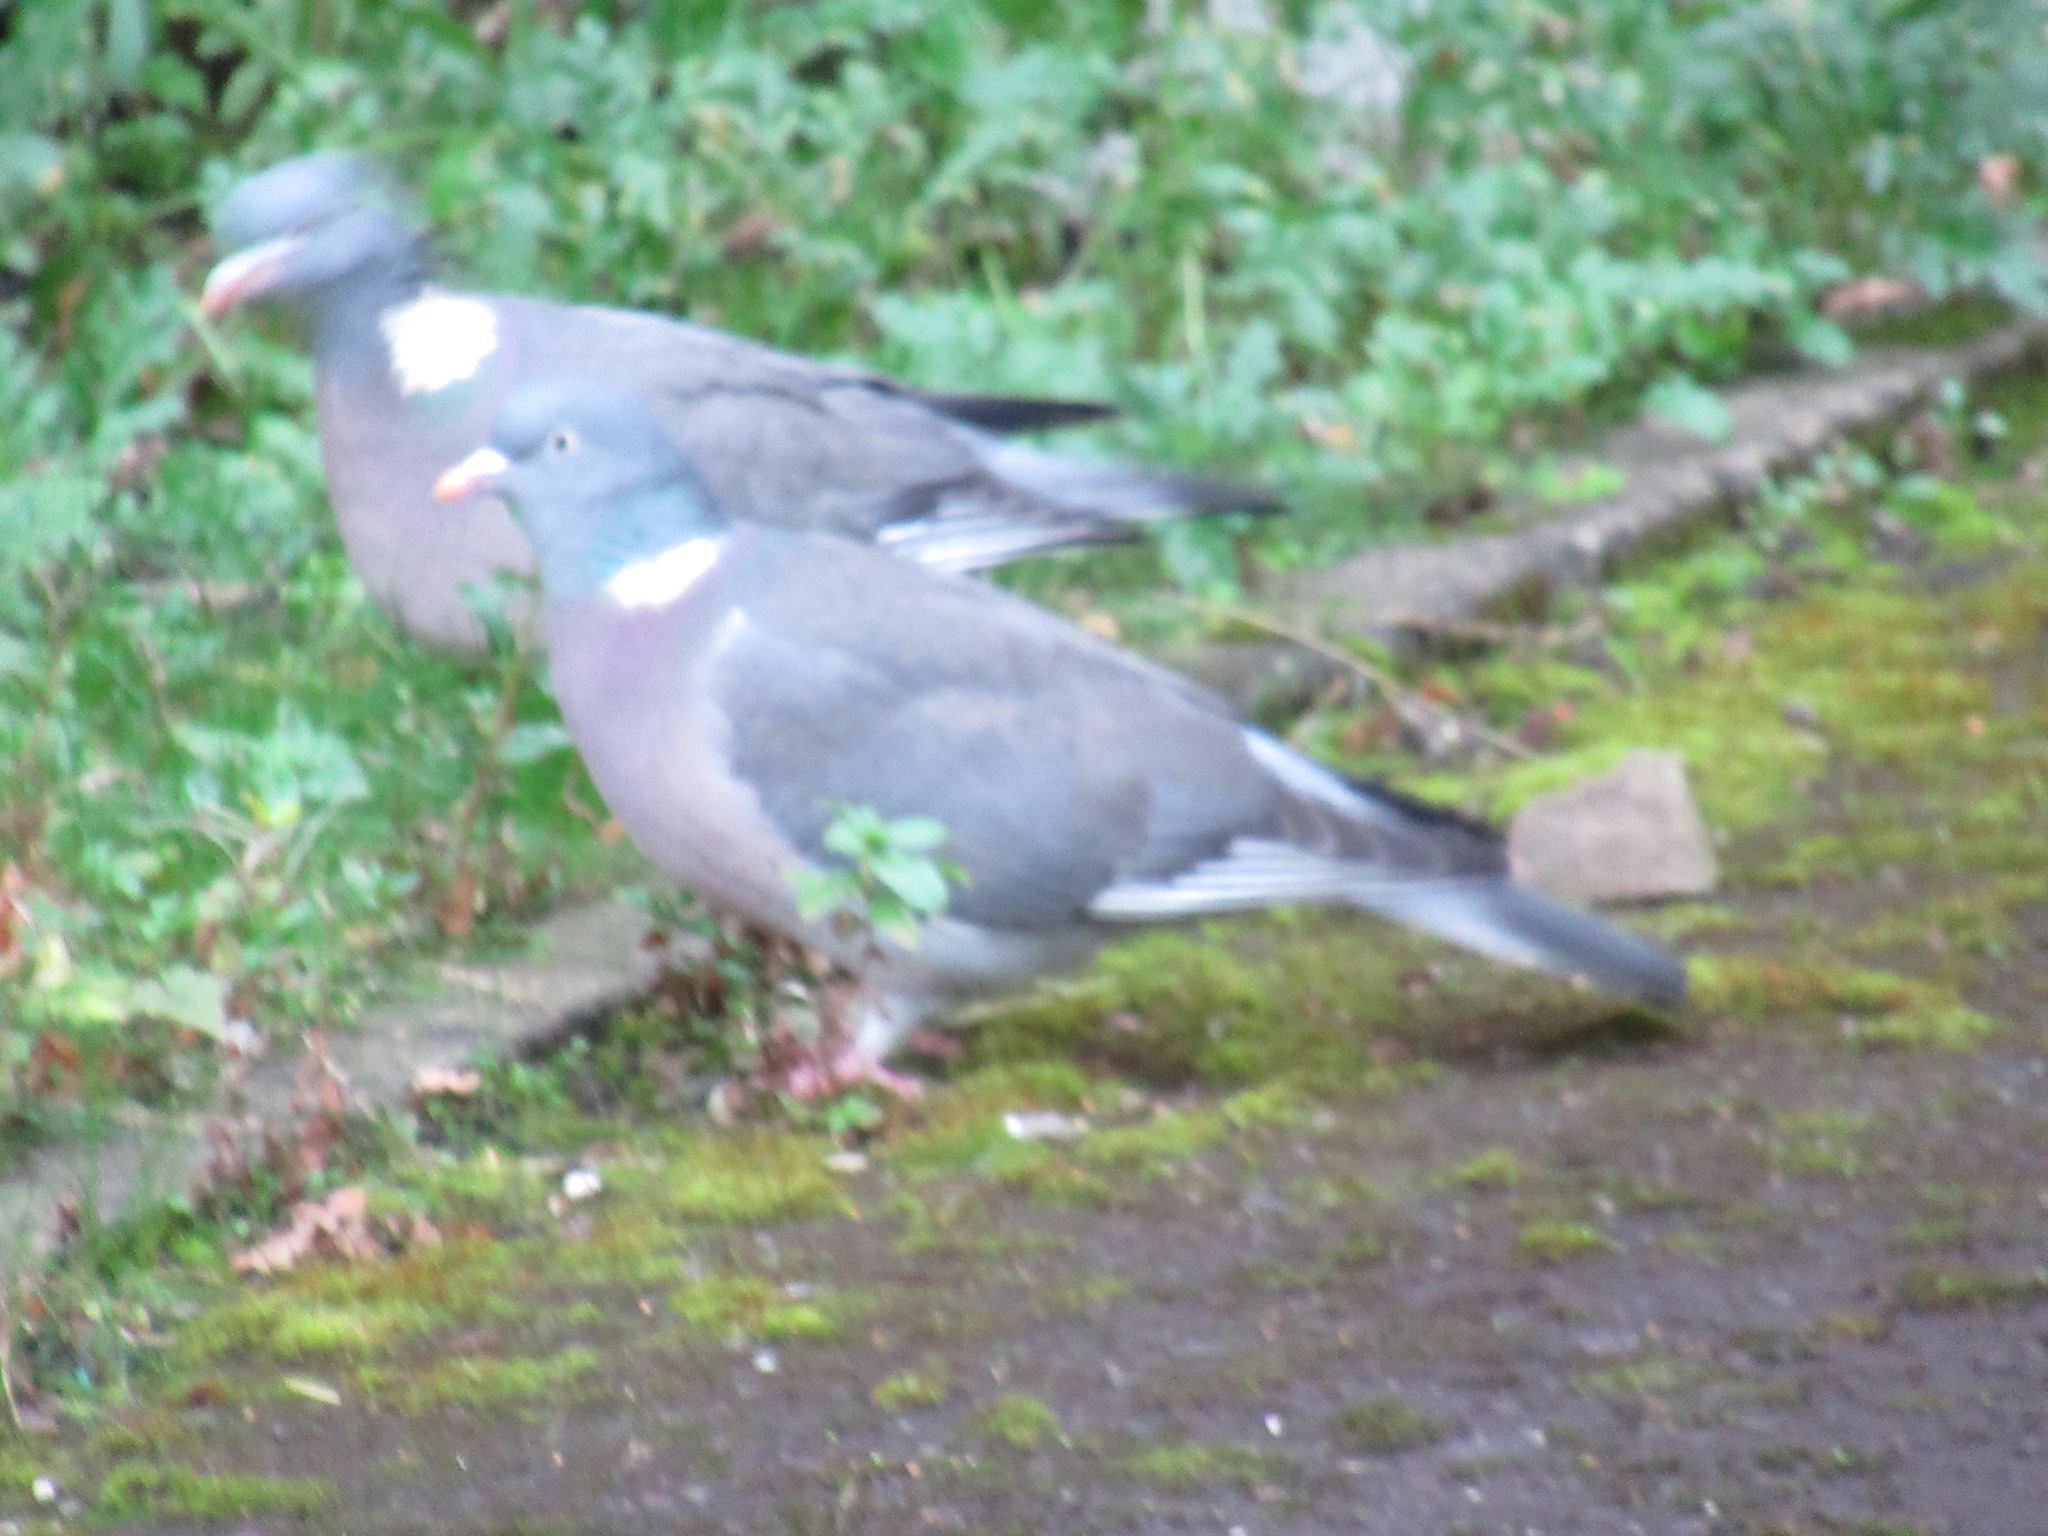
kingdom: Animalia
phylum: Chordata
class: Aves
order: Columbiformes
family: Columbidae
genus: Columba
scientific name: Columba palumbus
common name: Common wood pigeon
